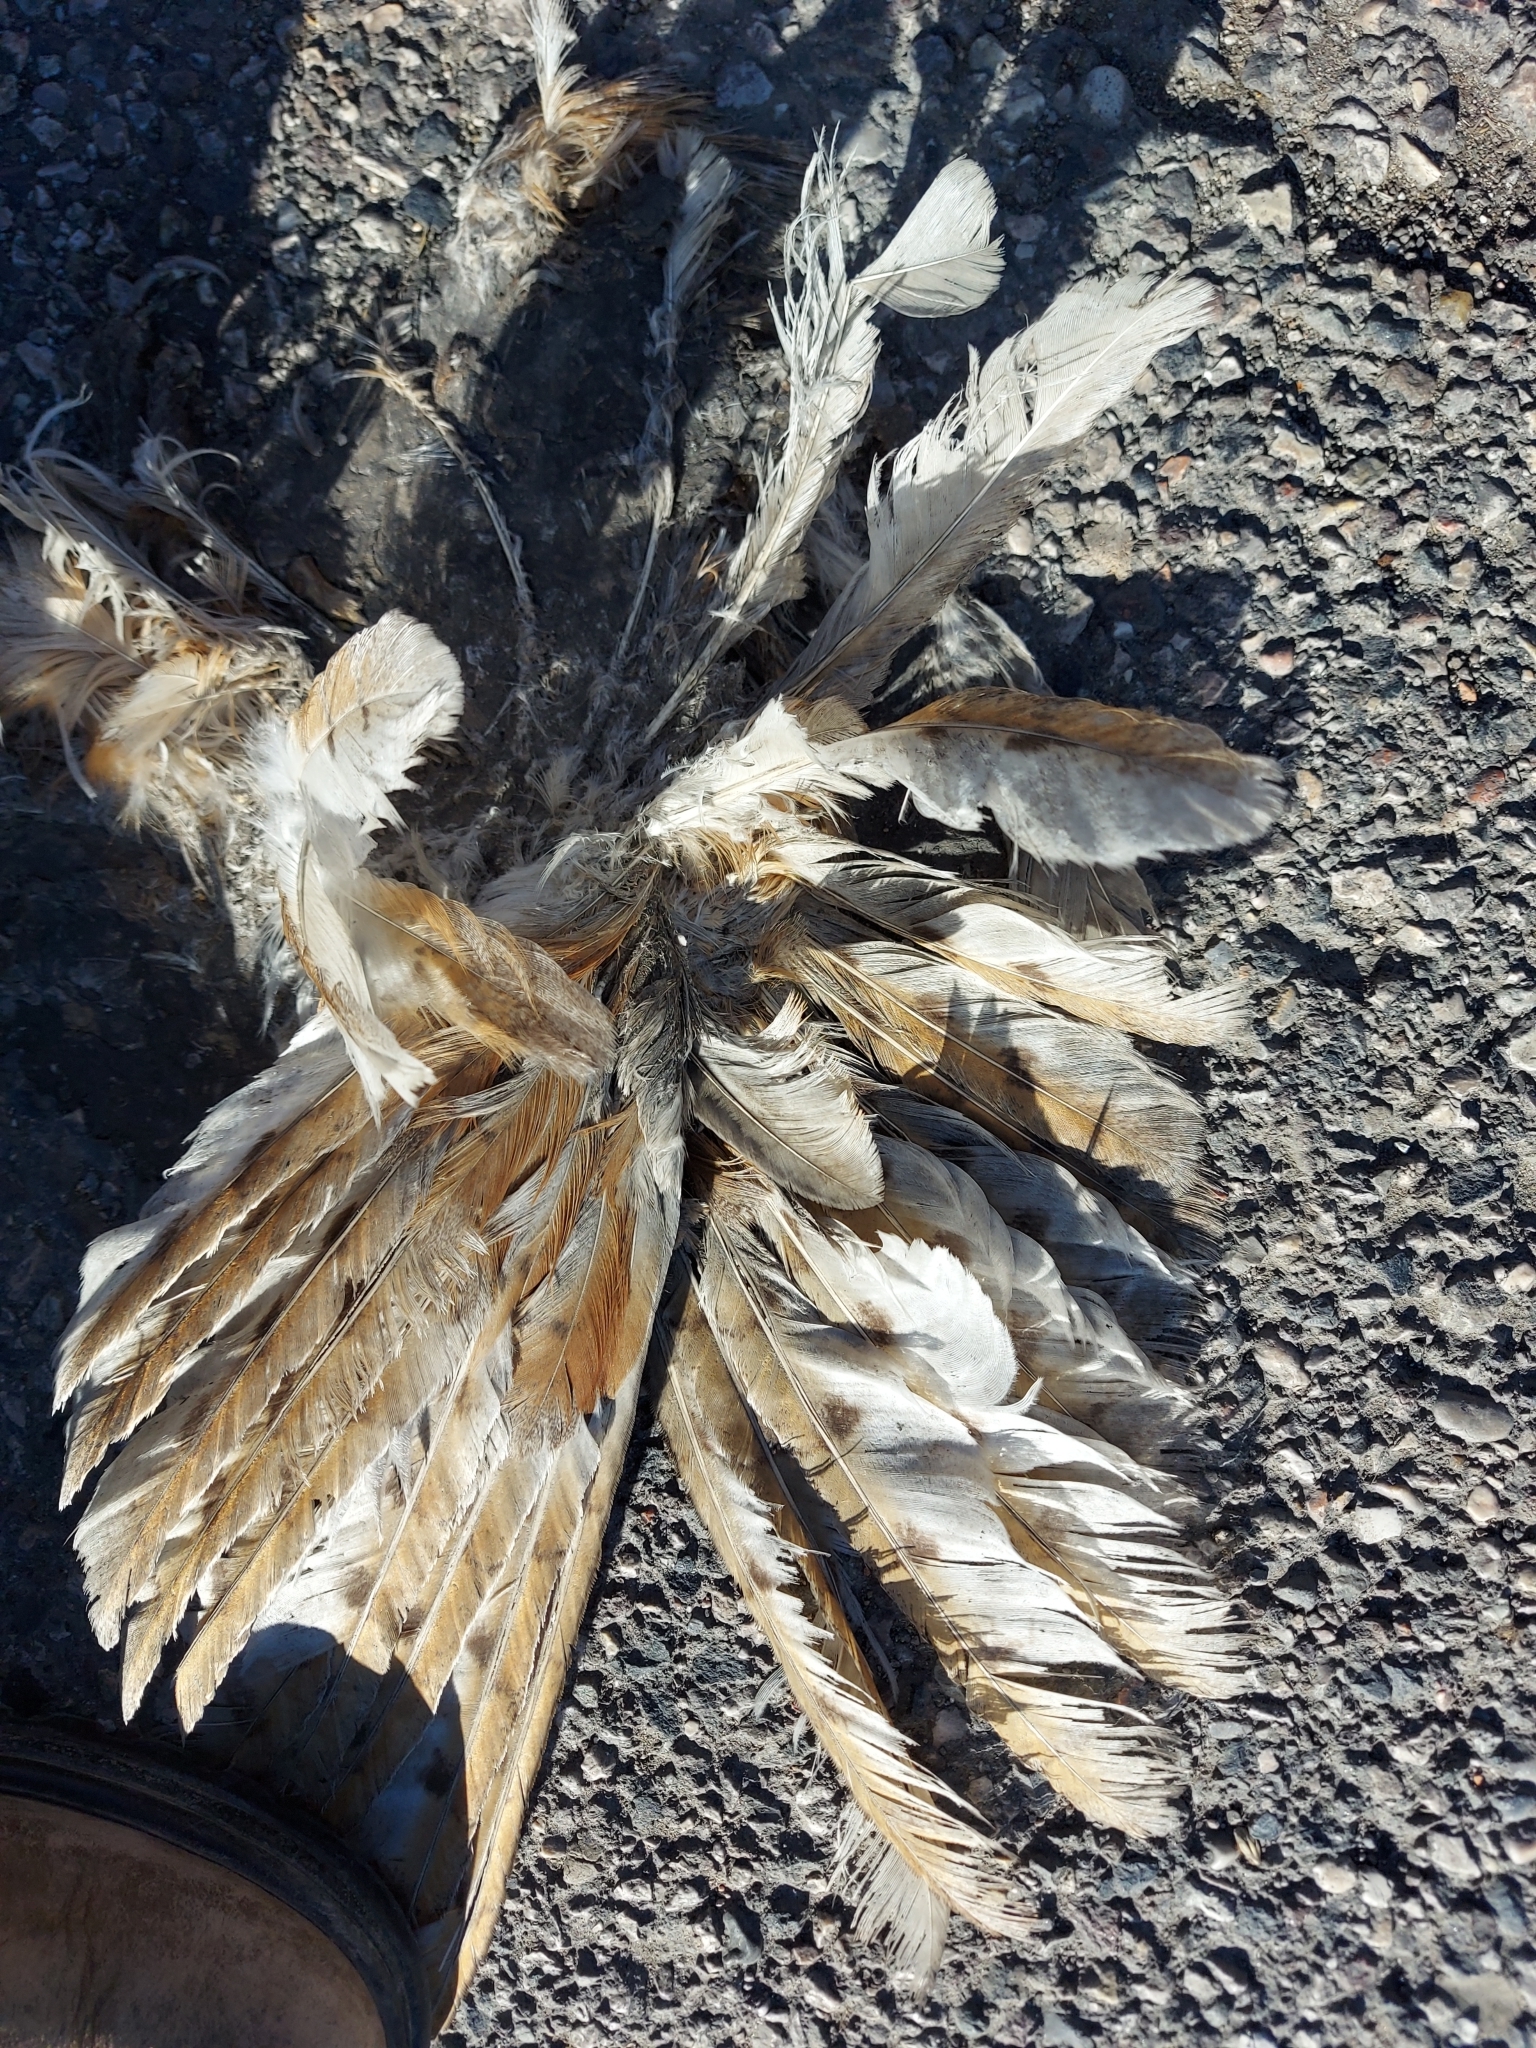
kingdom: Animalia
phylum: Chordata
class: Aves
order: Strigiformes
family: Tytonidae
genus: Tyto
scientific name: Tyto alba
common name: Barn owl
